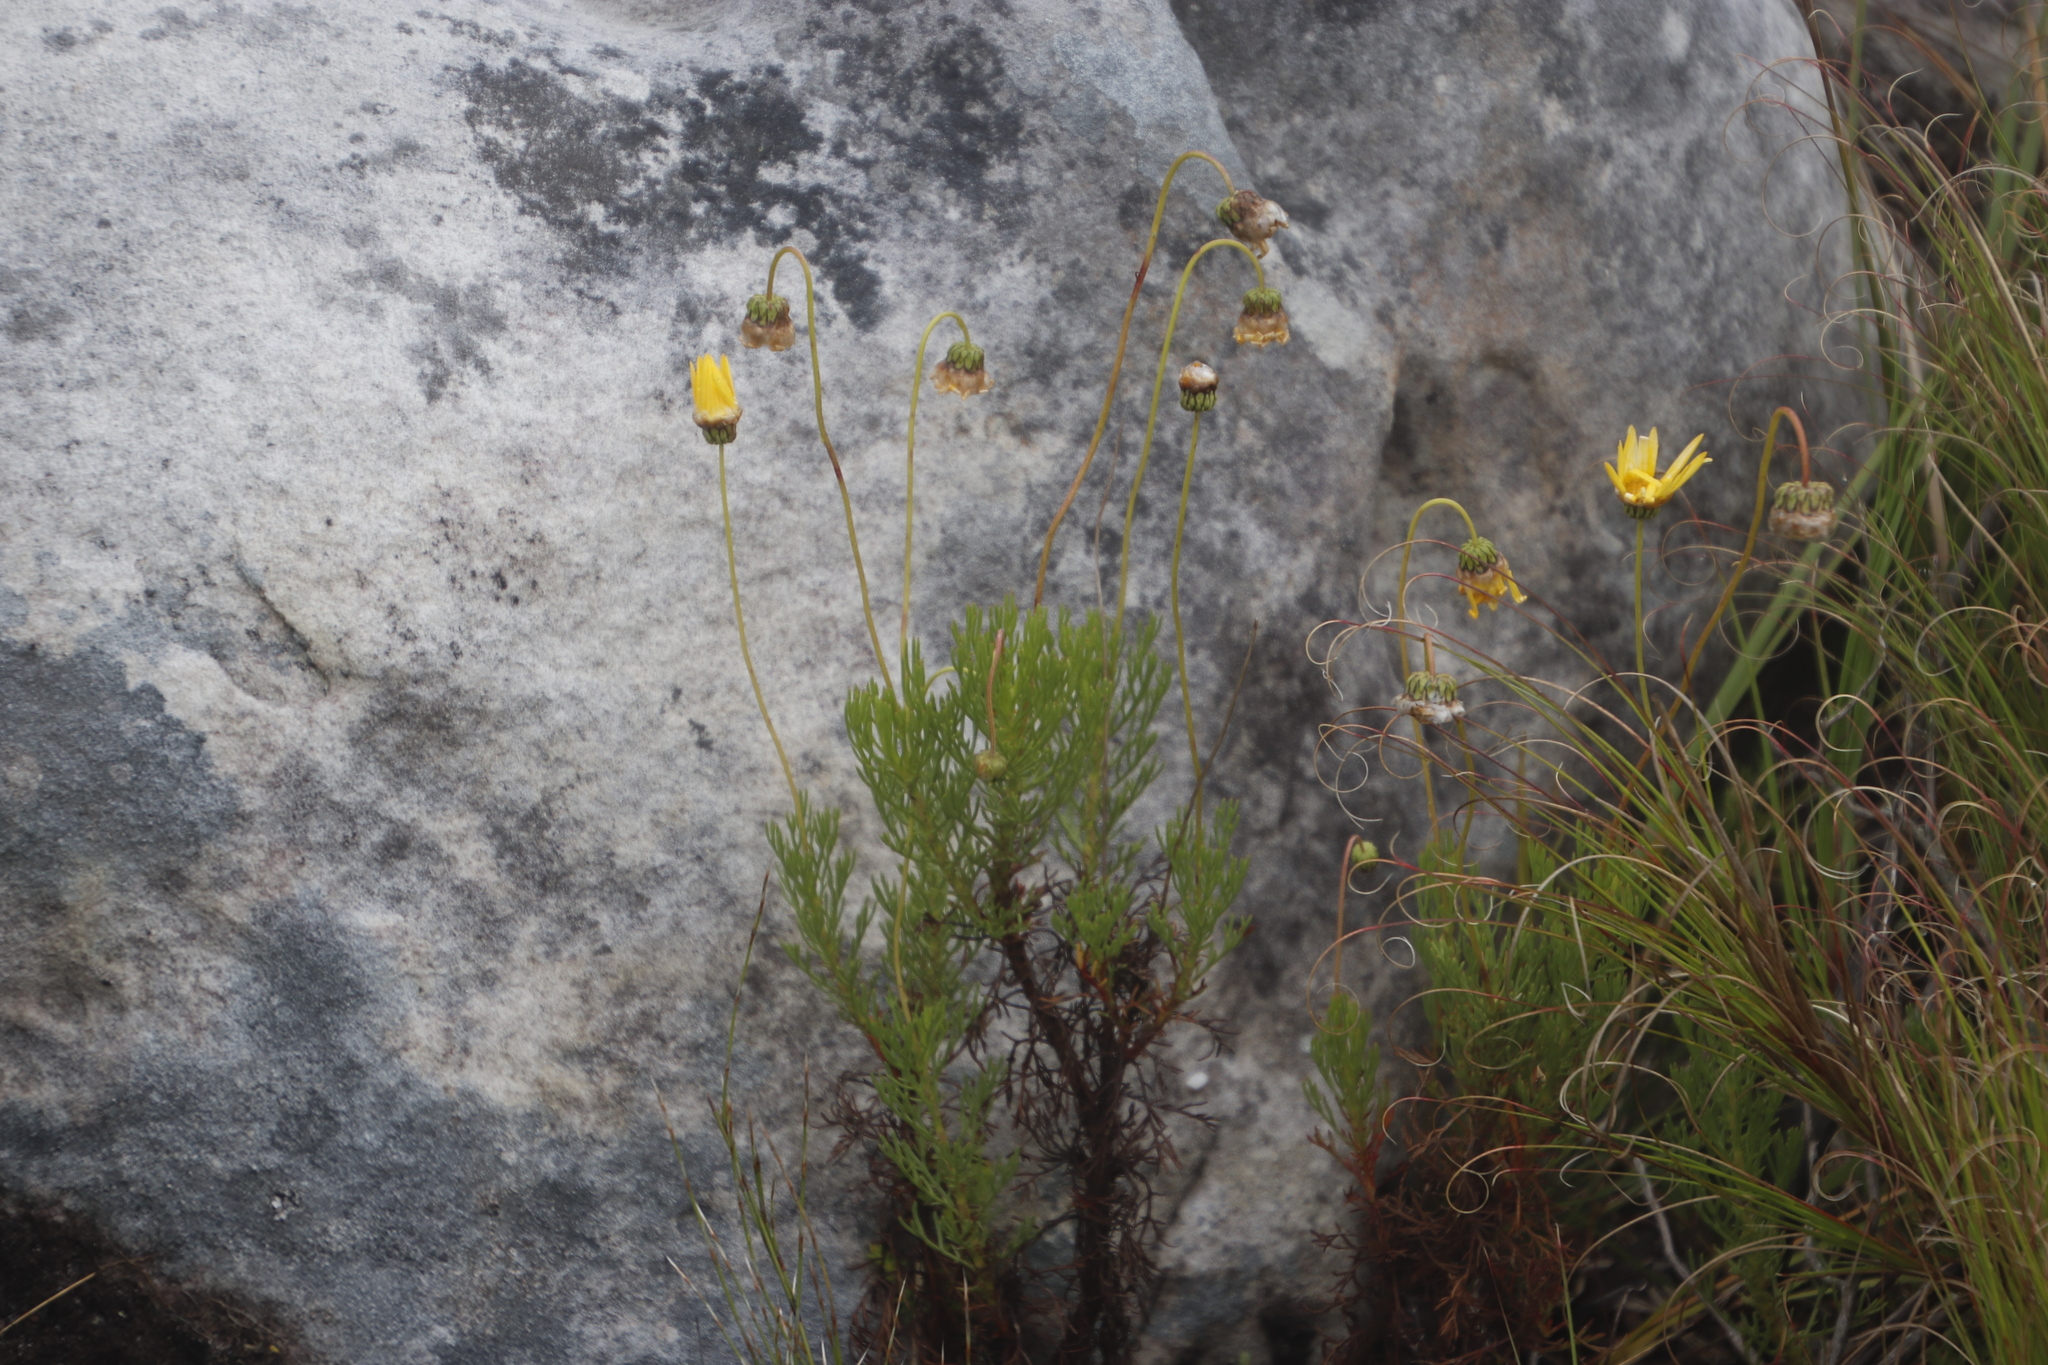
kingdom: Plantae
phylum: Tracheophyta
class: Magnoliopsida
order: Asterales
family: Asteraceae
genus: Euryops
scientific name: Euryops abrotanifolius
